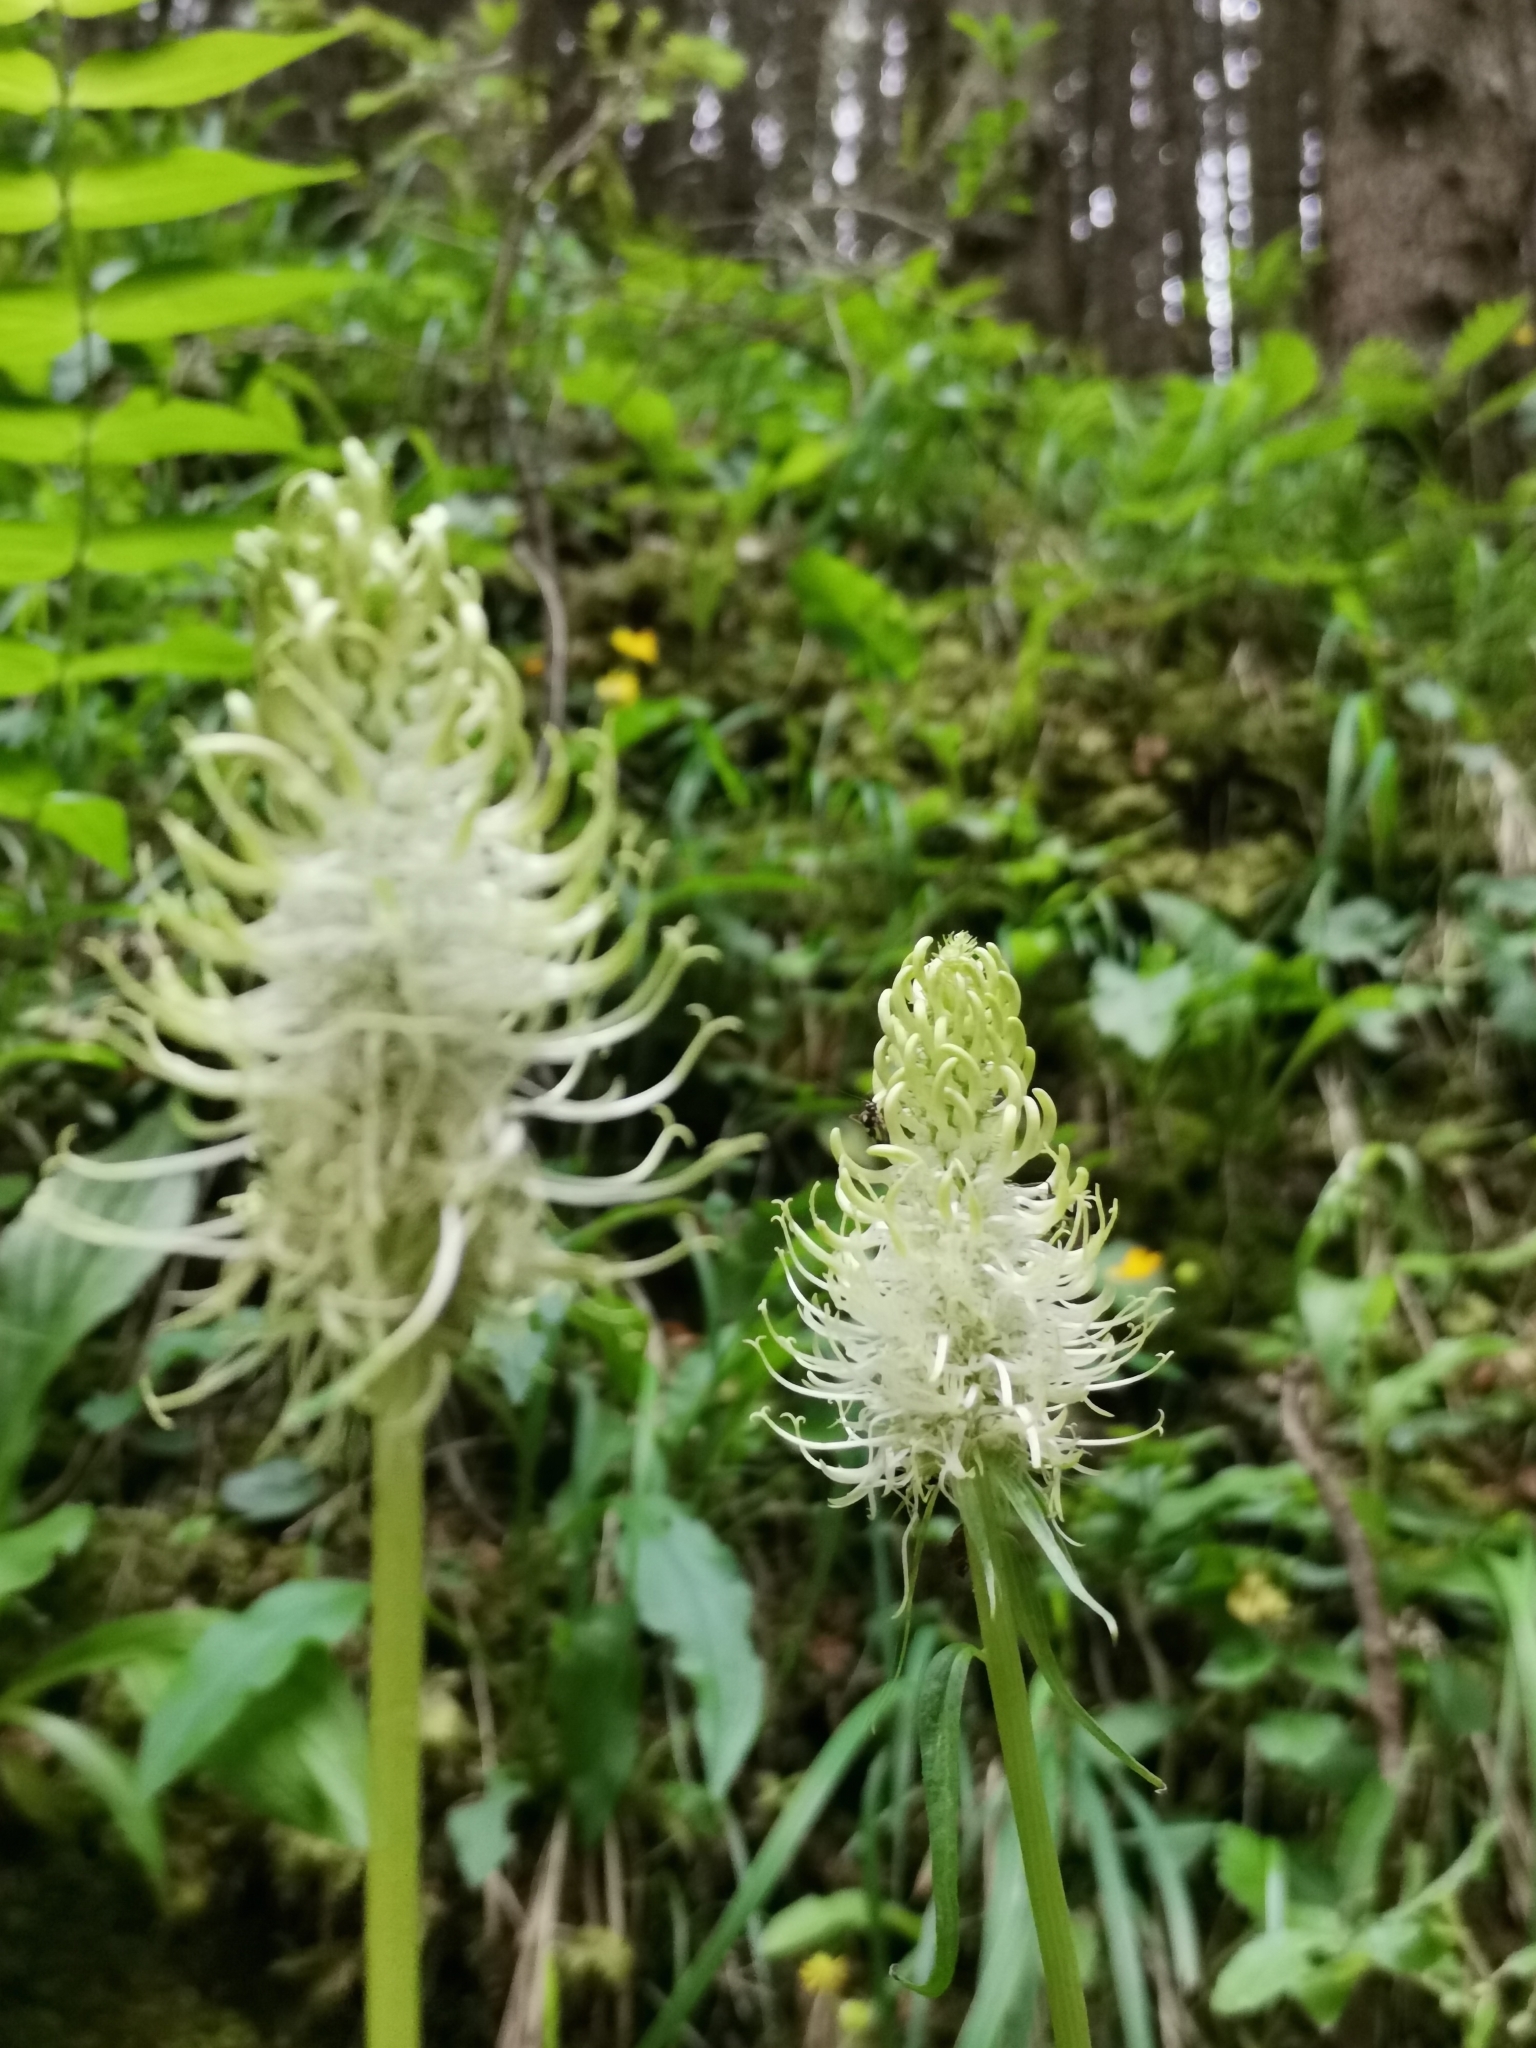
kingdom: Plantae
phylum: Tracheophyta
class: Magnoliopsida
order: Asterales
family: Campanulaceae
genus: Phyteuma
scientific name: Phyteuma spicatum
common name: Spiked rampion
